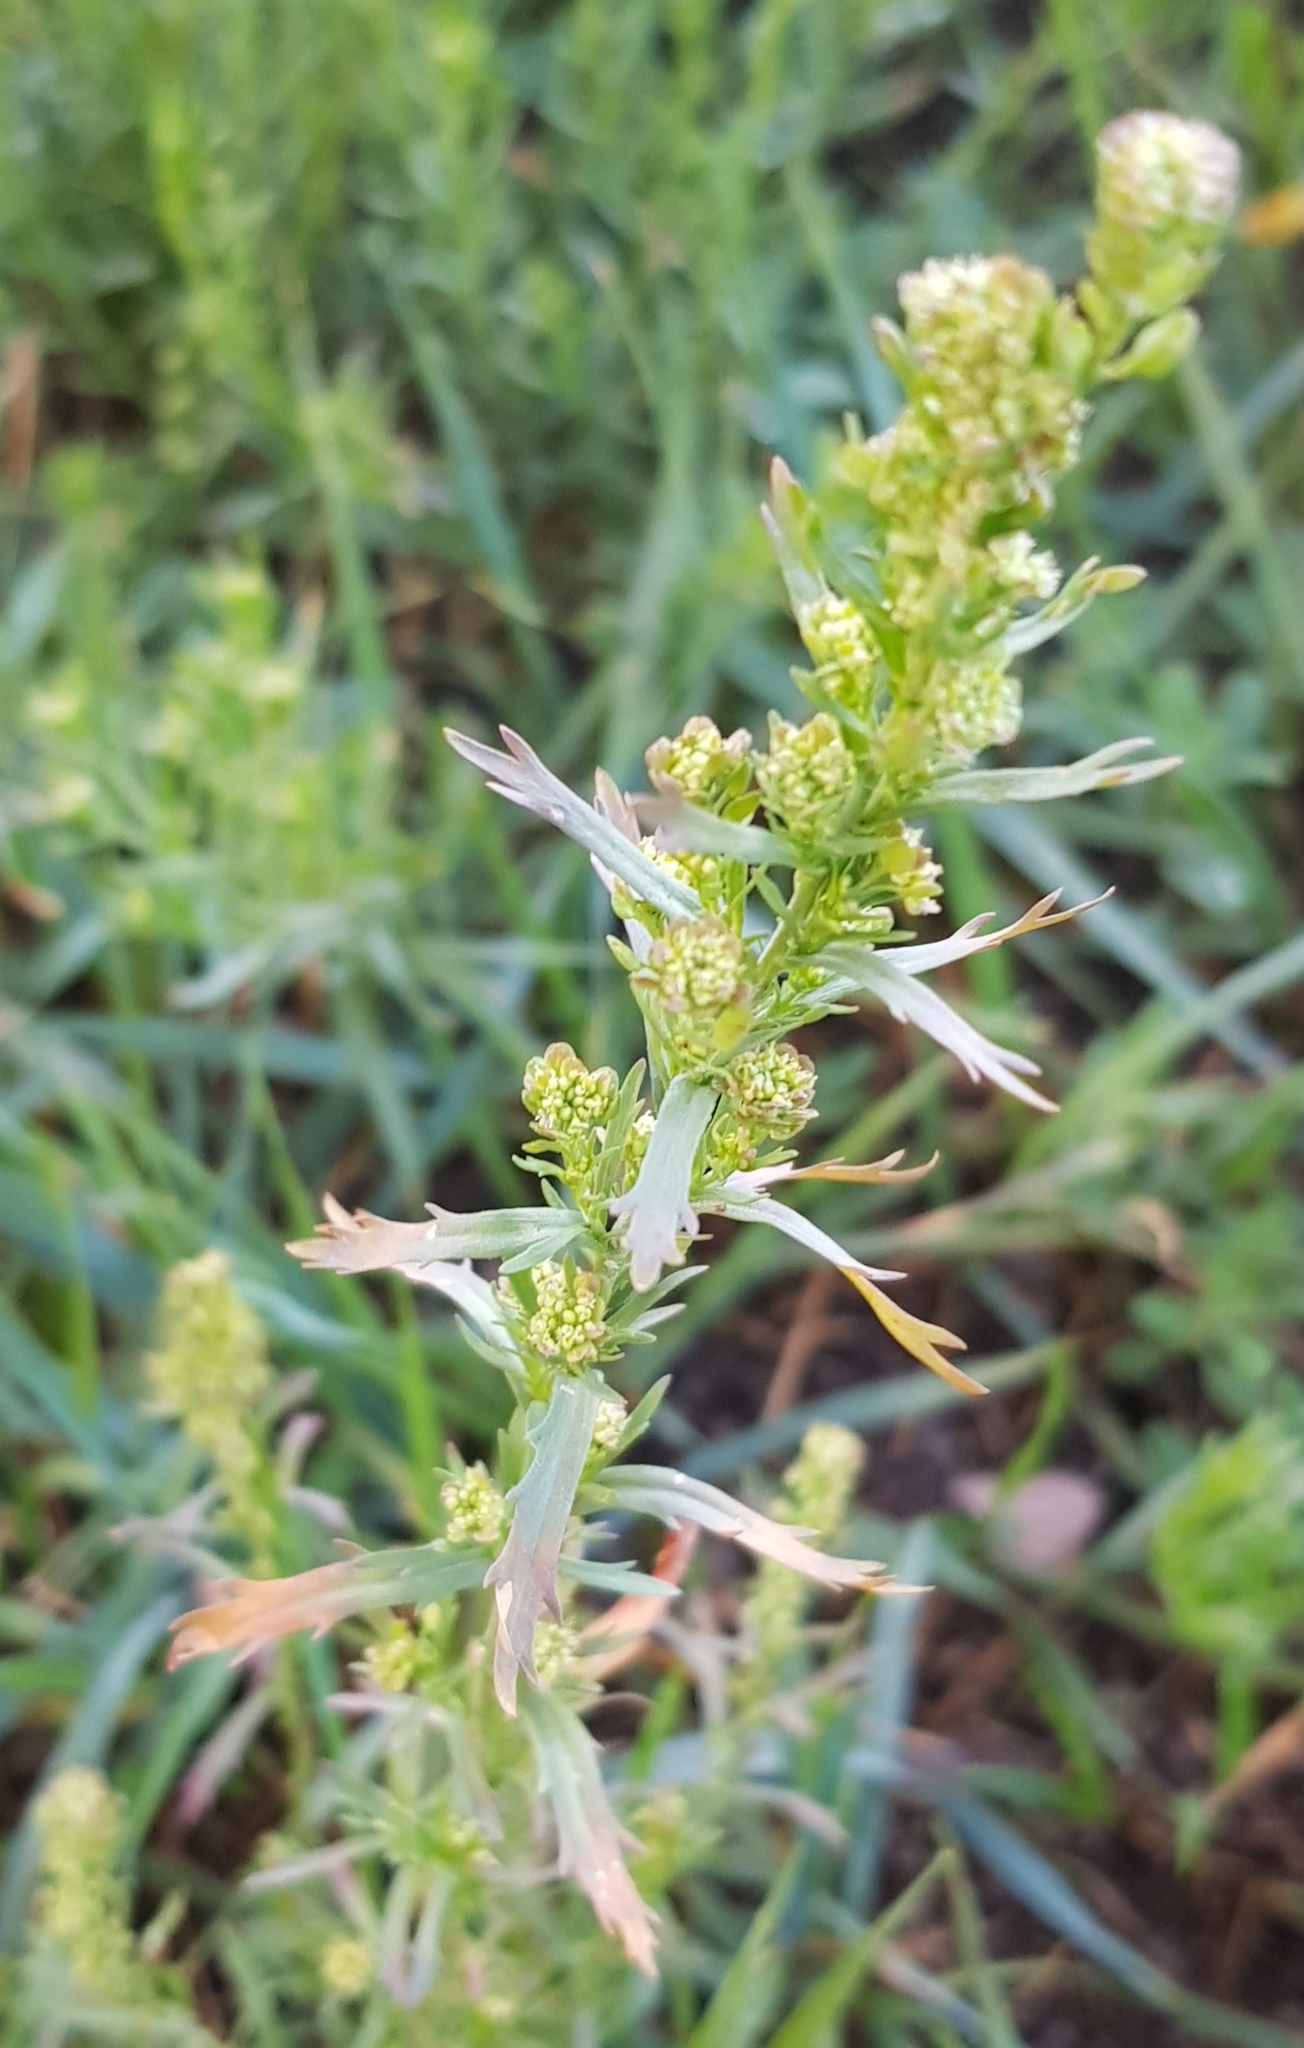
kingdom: Plantae
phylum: Tracheophyta
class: Magnoliopsida
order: Asterales
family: Asteraceae
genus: Artemisia
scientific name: Artemisia dracunculus
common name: Tarragon
